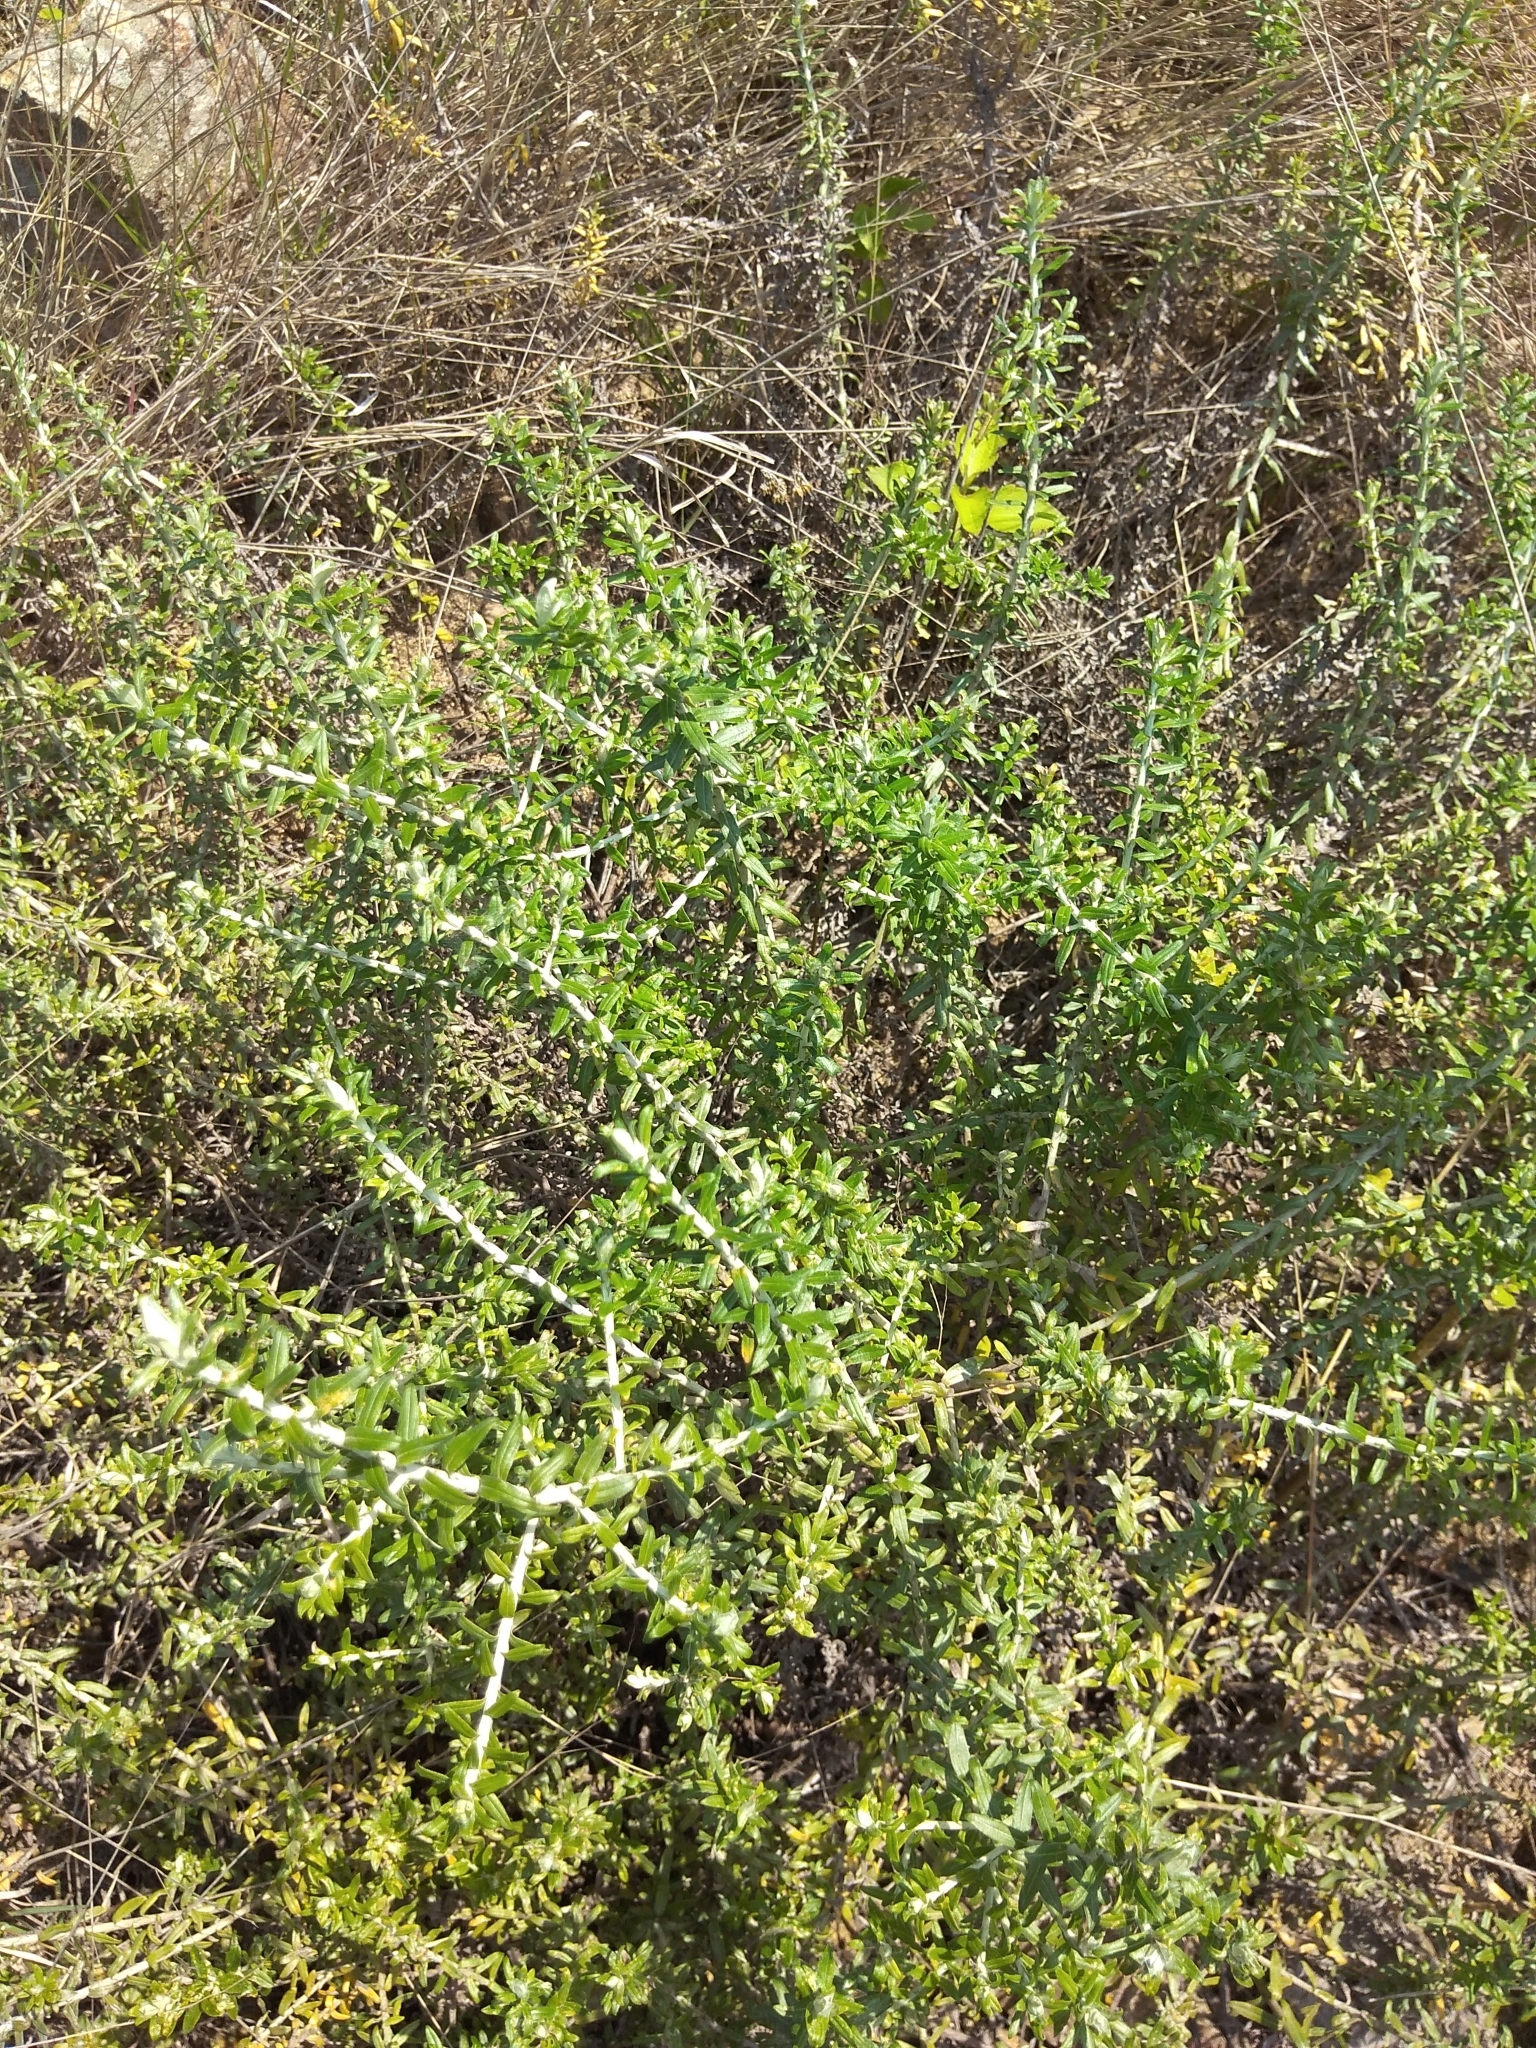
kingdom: Plantae
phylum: Tracheophyta
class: Magnoliopsida
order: Asterales
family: Asteraceae
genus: Helichrysum
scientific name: Helichrysum cymosum
